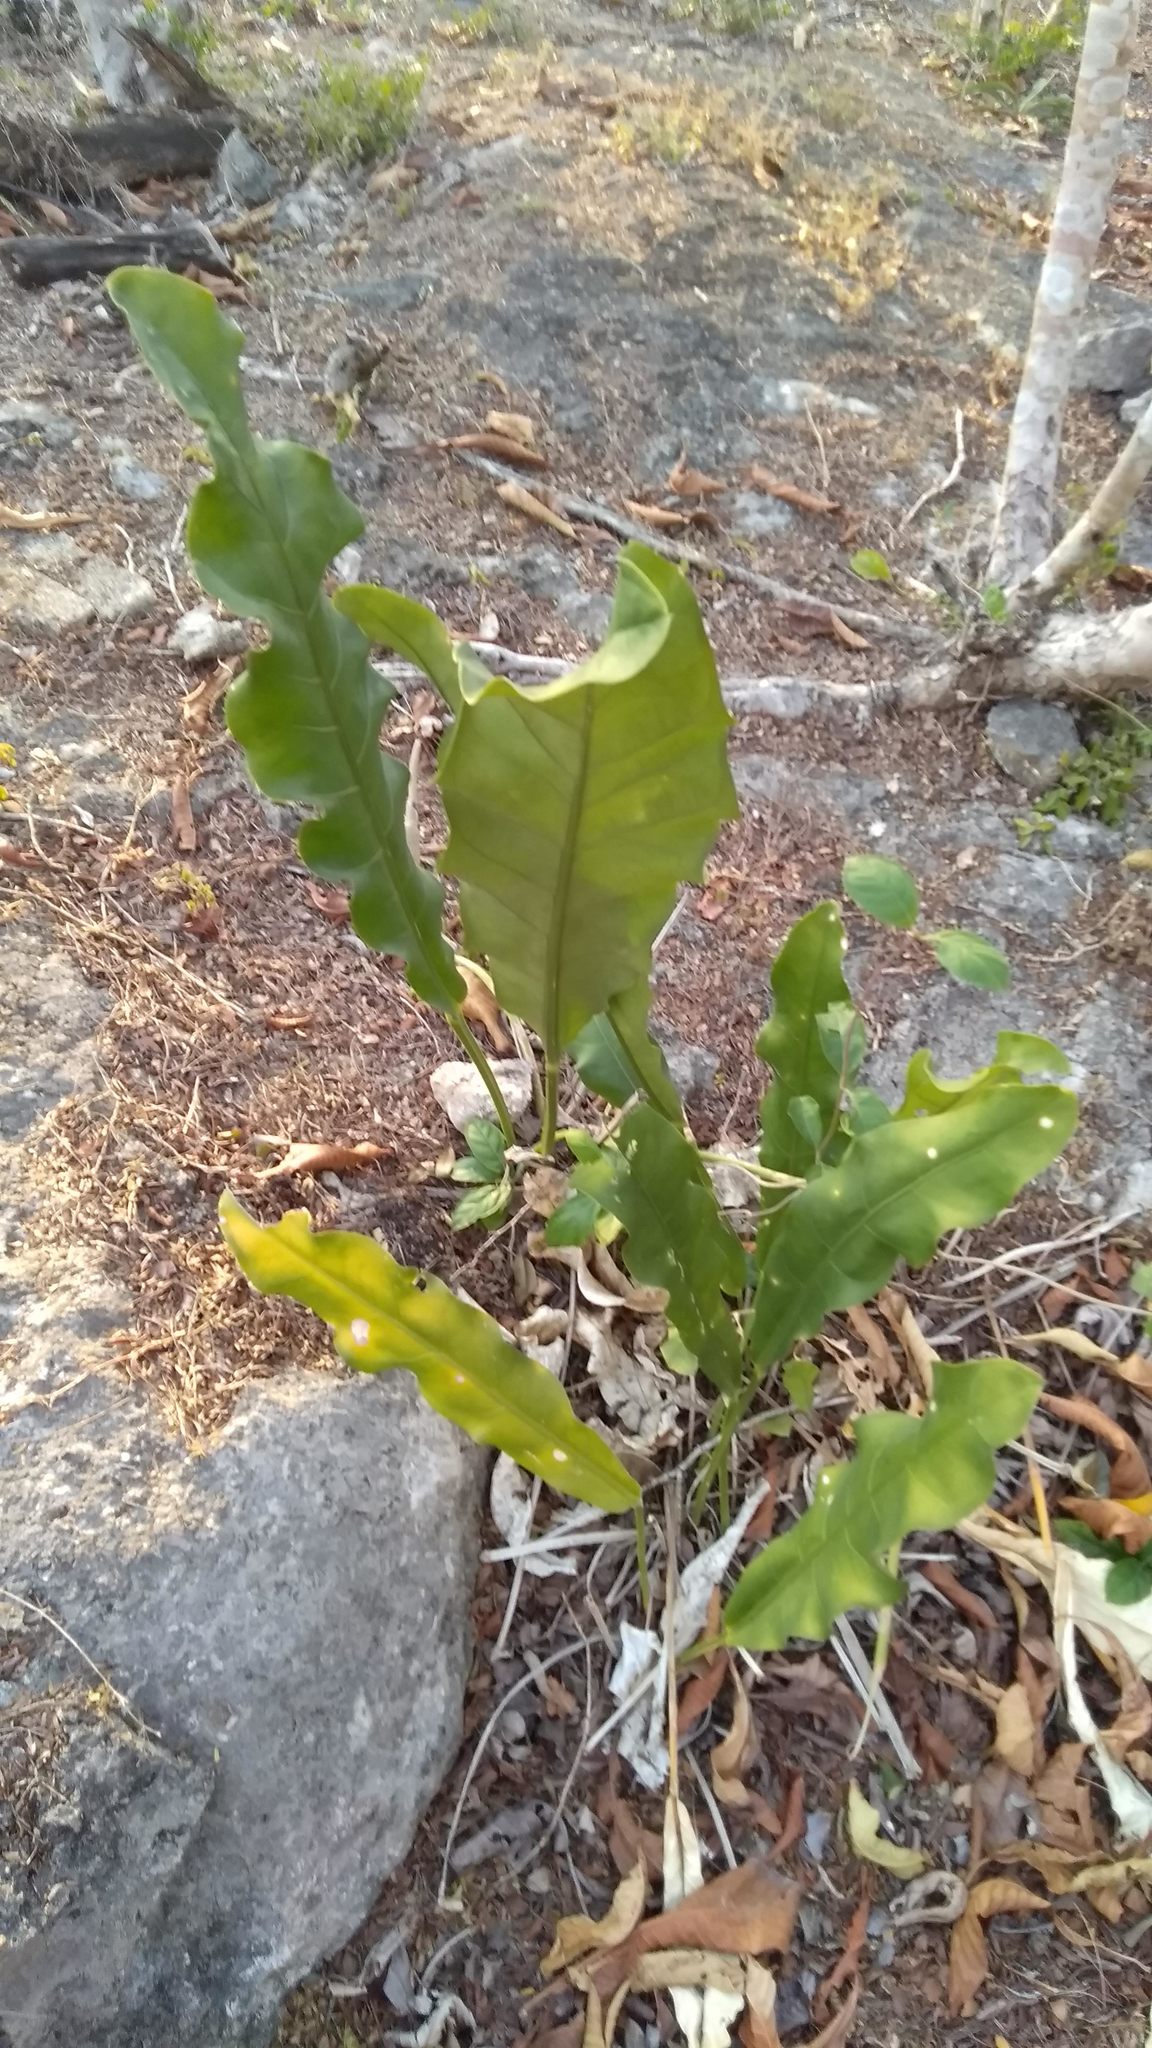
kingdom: Plantae
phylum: Tracheophyta
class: Liliopsida
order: Alismatales
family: Araceae
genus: Anthurium
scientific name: Anthurium schlechtendalii
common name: Laceleaf
